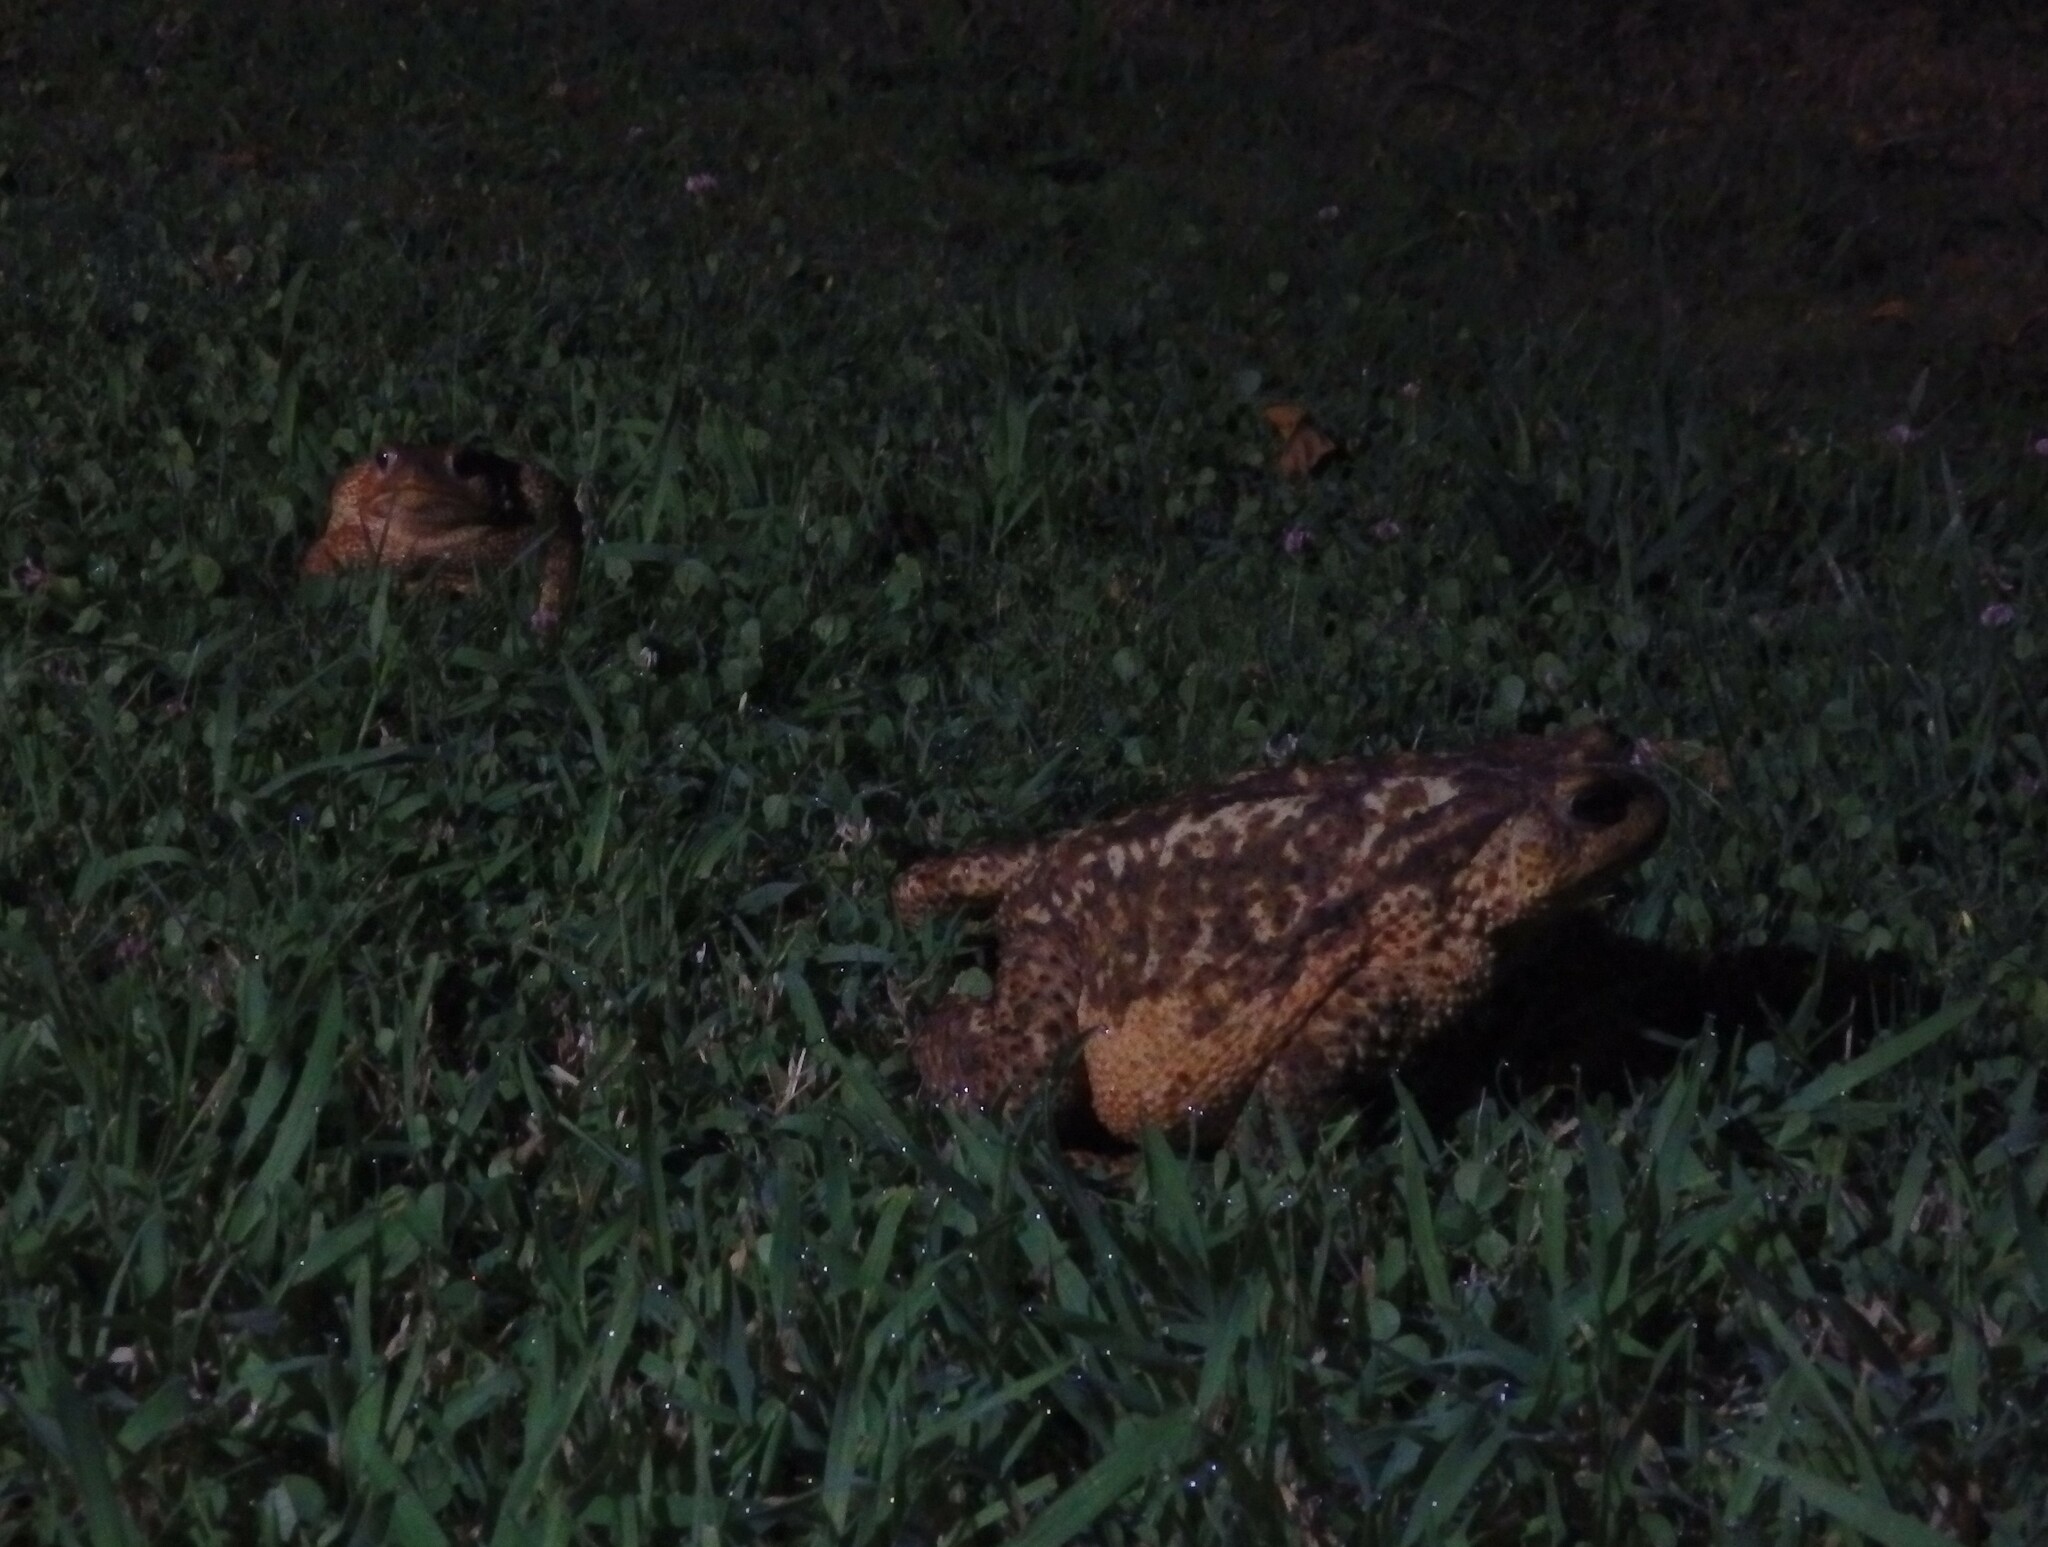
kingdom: Animalia
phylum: Chordata
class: Amphibia
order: Anura
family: Bufonidae
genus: Bufo
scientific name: Bufo spinosus
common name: Western common toad
